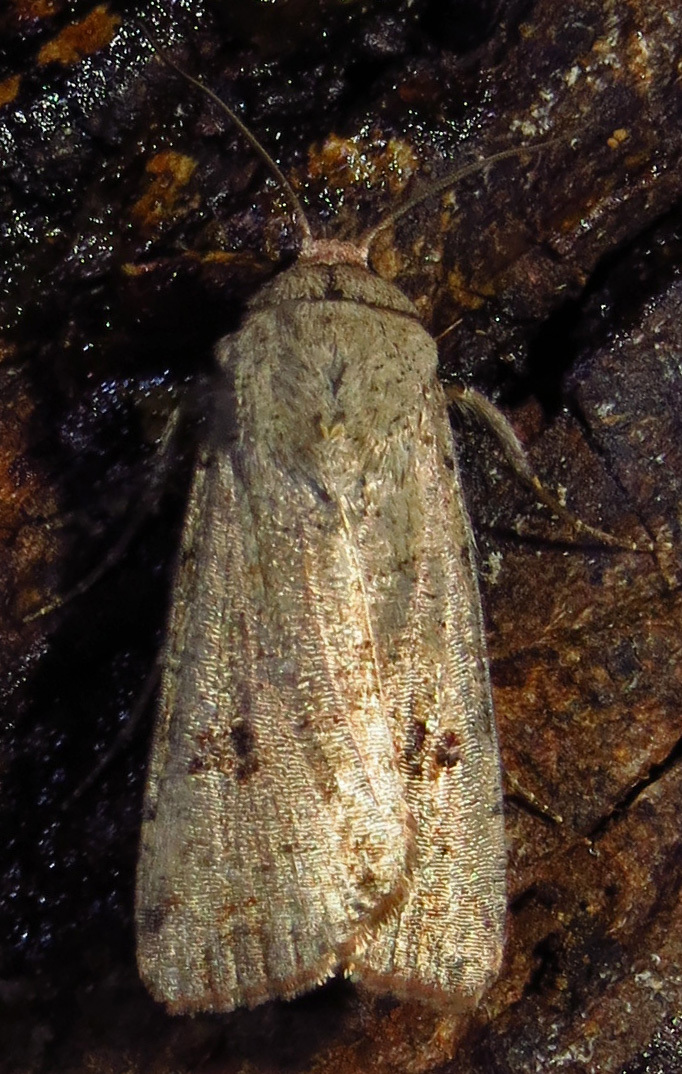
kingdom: Animalia
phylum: Arthropoda
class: Insecta
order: Lepidoptera
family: Noctuidae
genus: Anicla
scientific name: Anicla infecta
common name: Green cutworm
